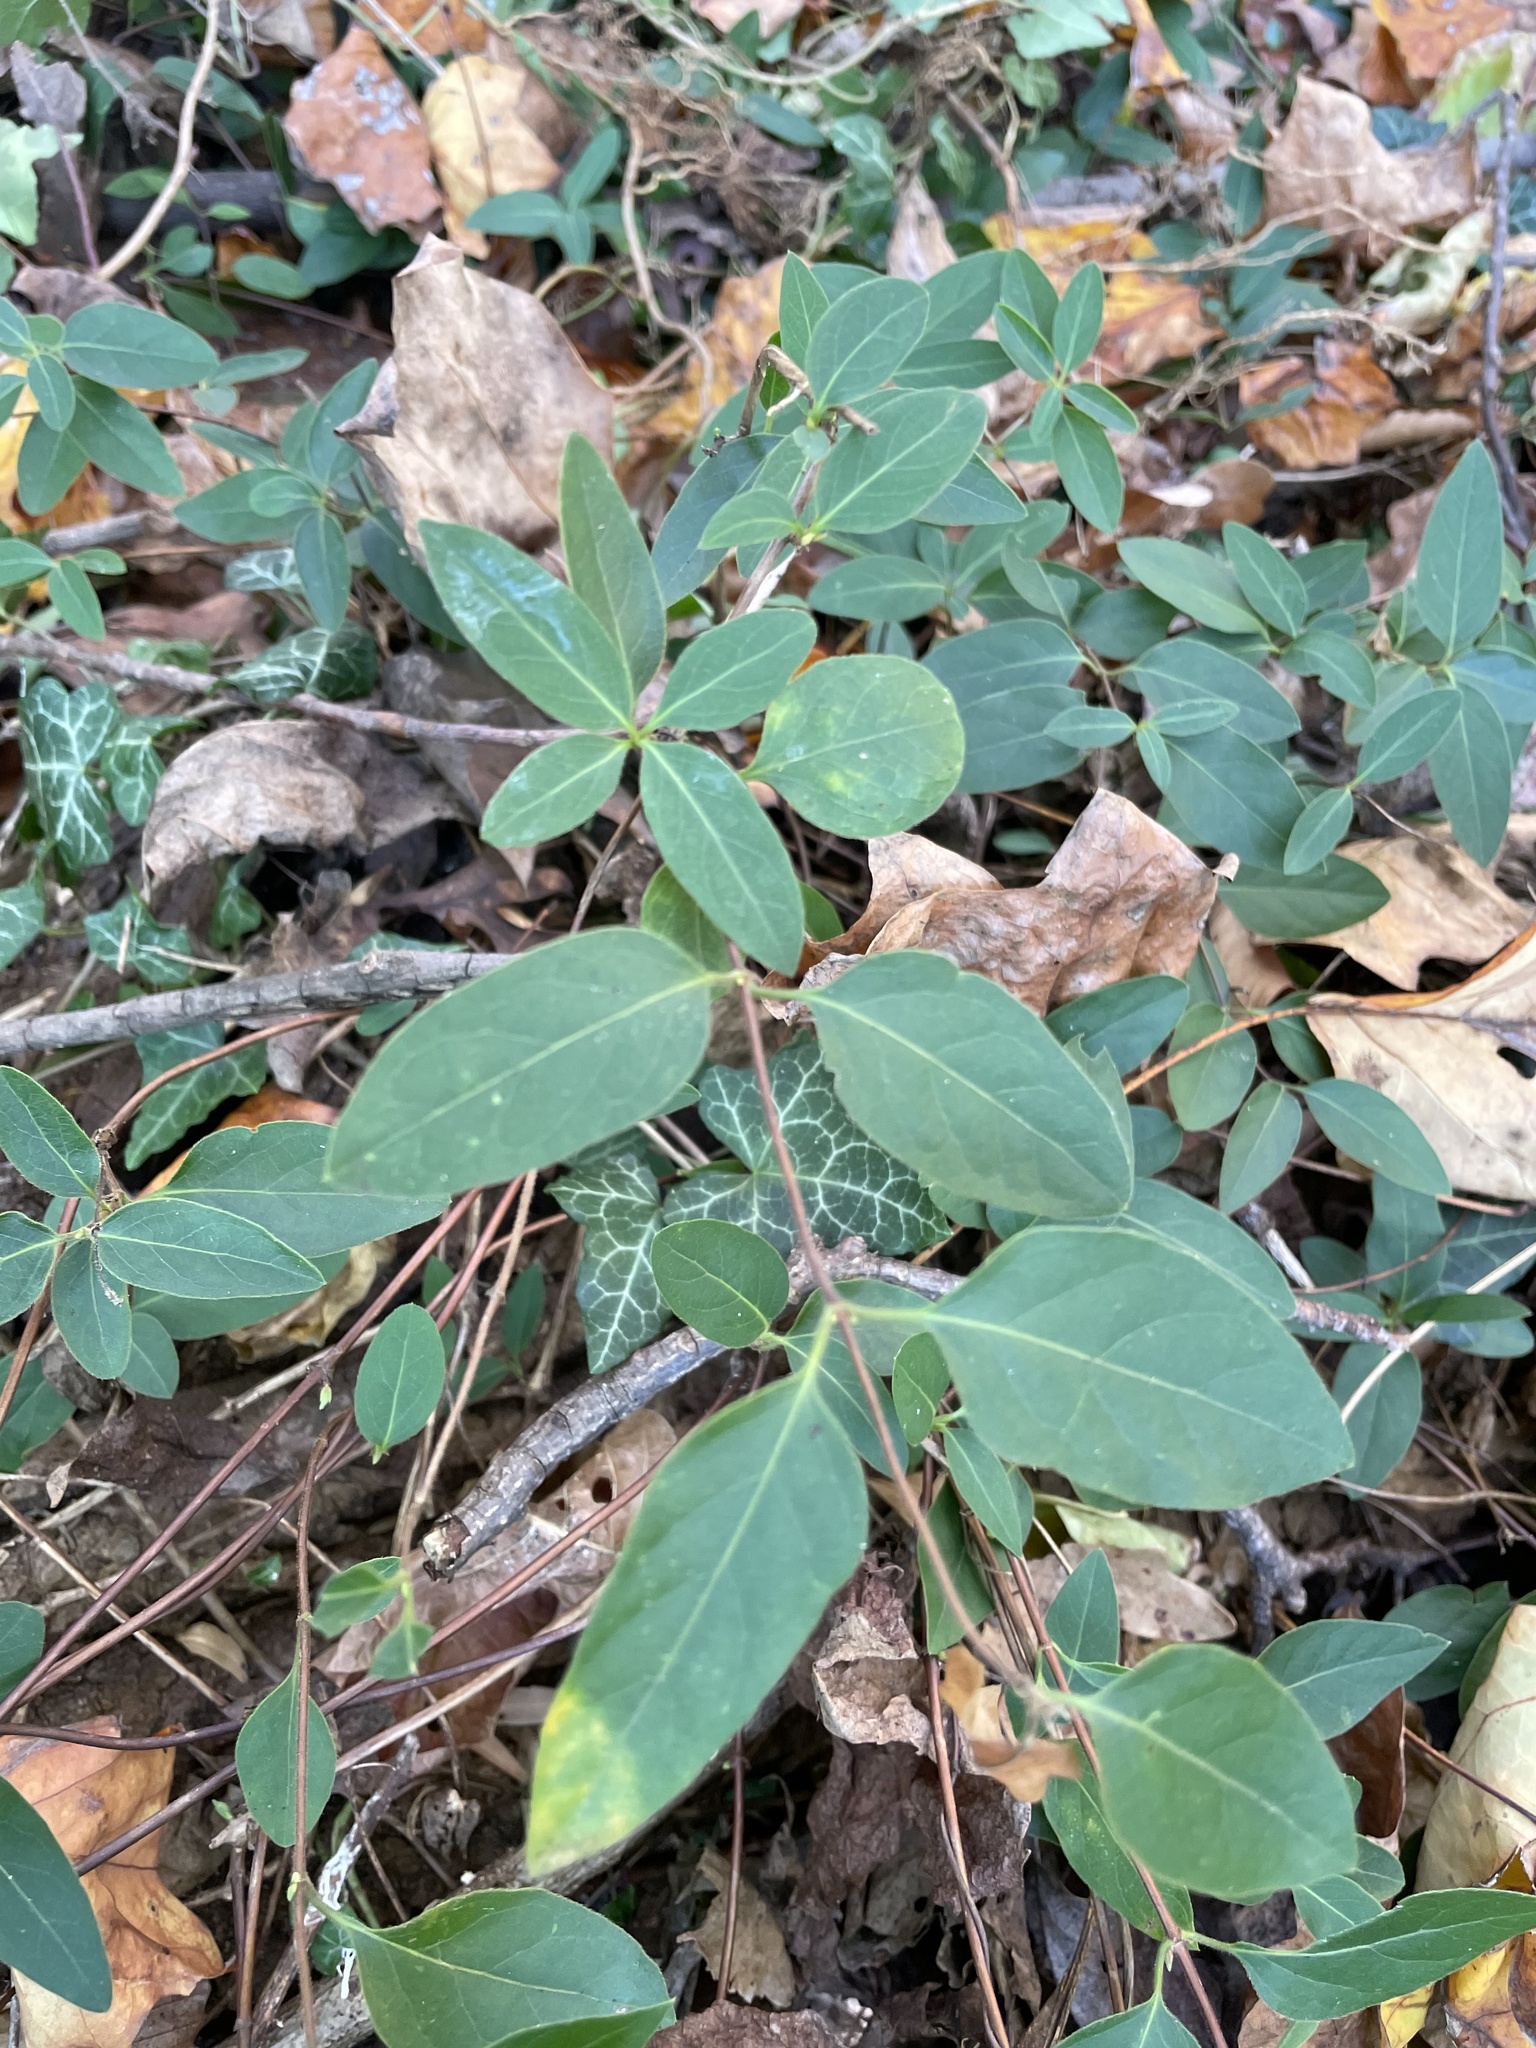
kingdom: Plantae
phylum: Tracheophyta
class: Magnoliopsida
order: Dipsacales
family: Caprifoliaceae
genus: Lonicera
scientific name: Lonicera japonica
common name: Japanese honeysuckle
